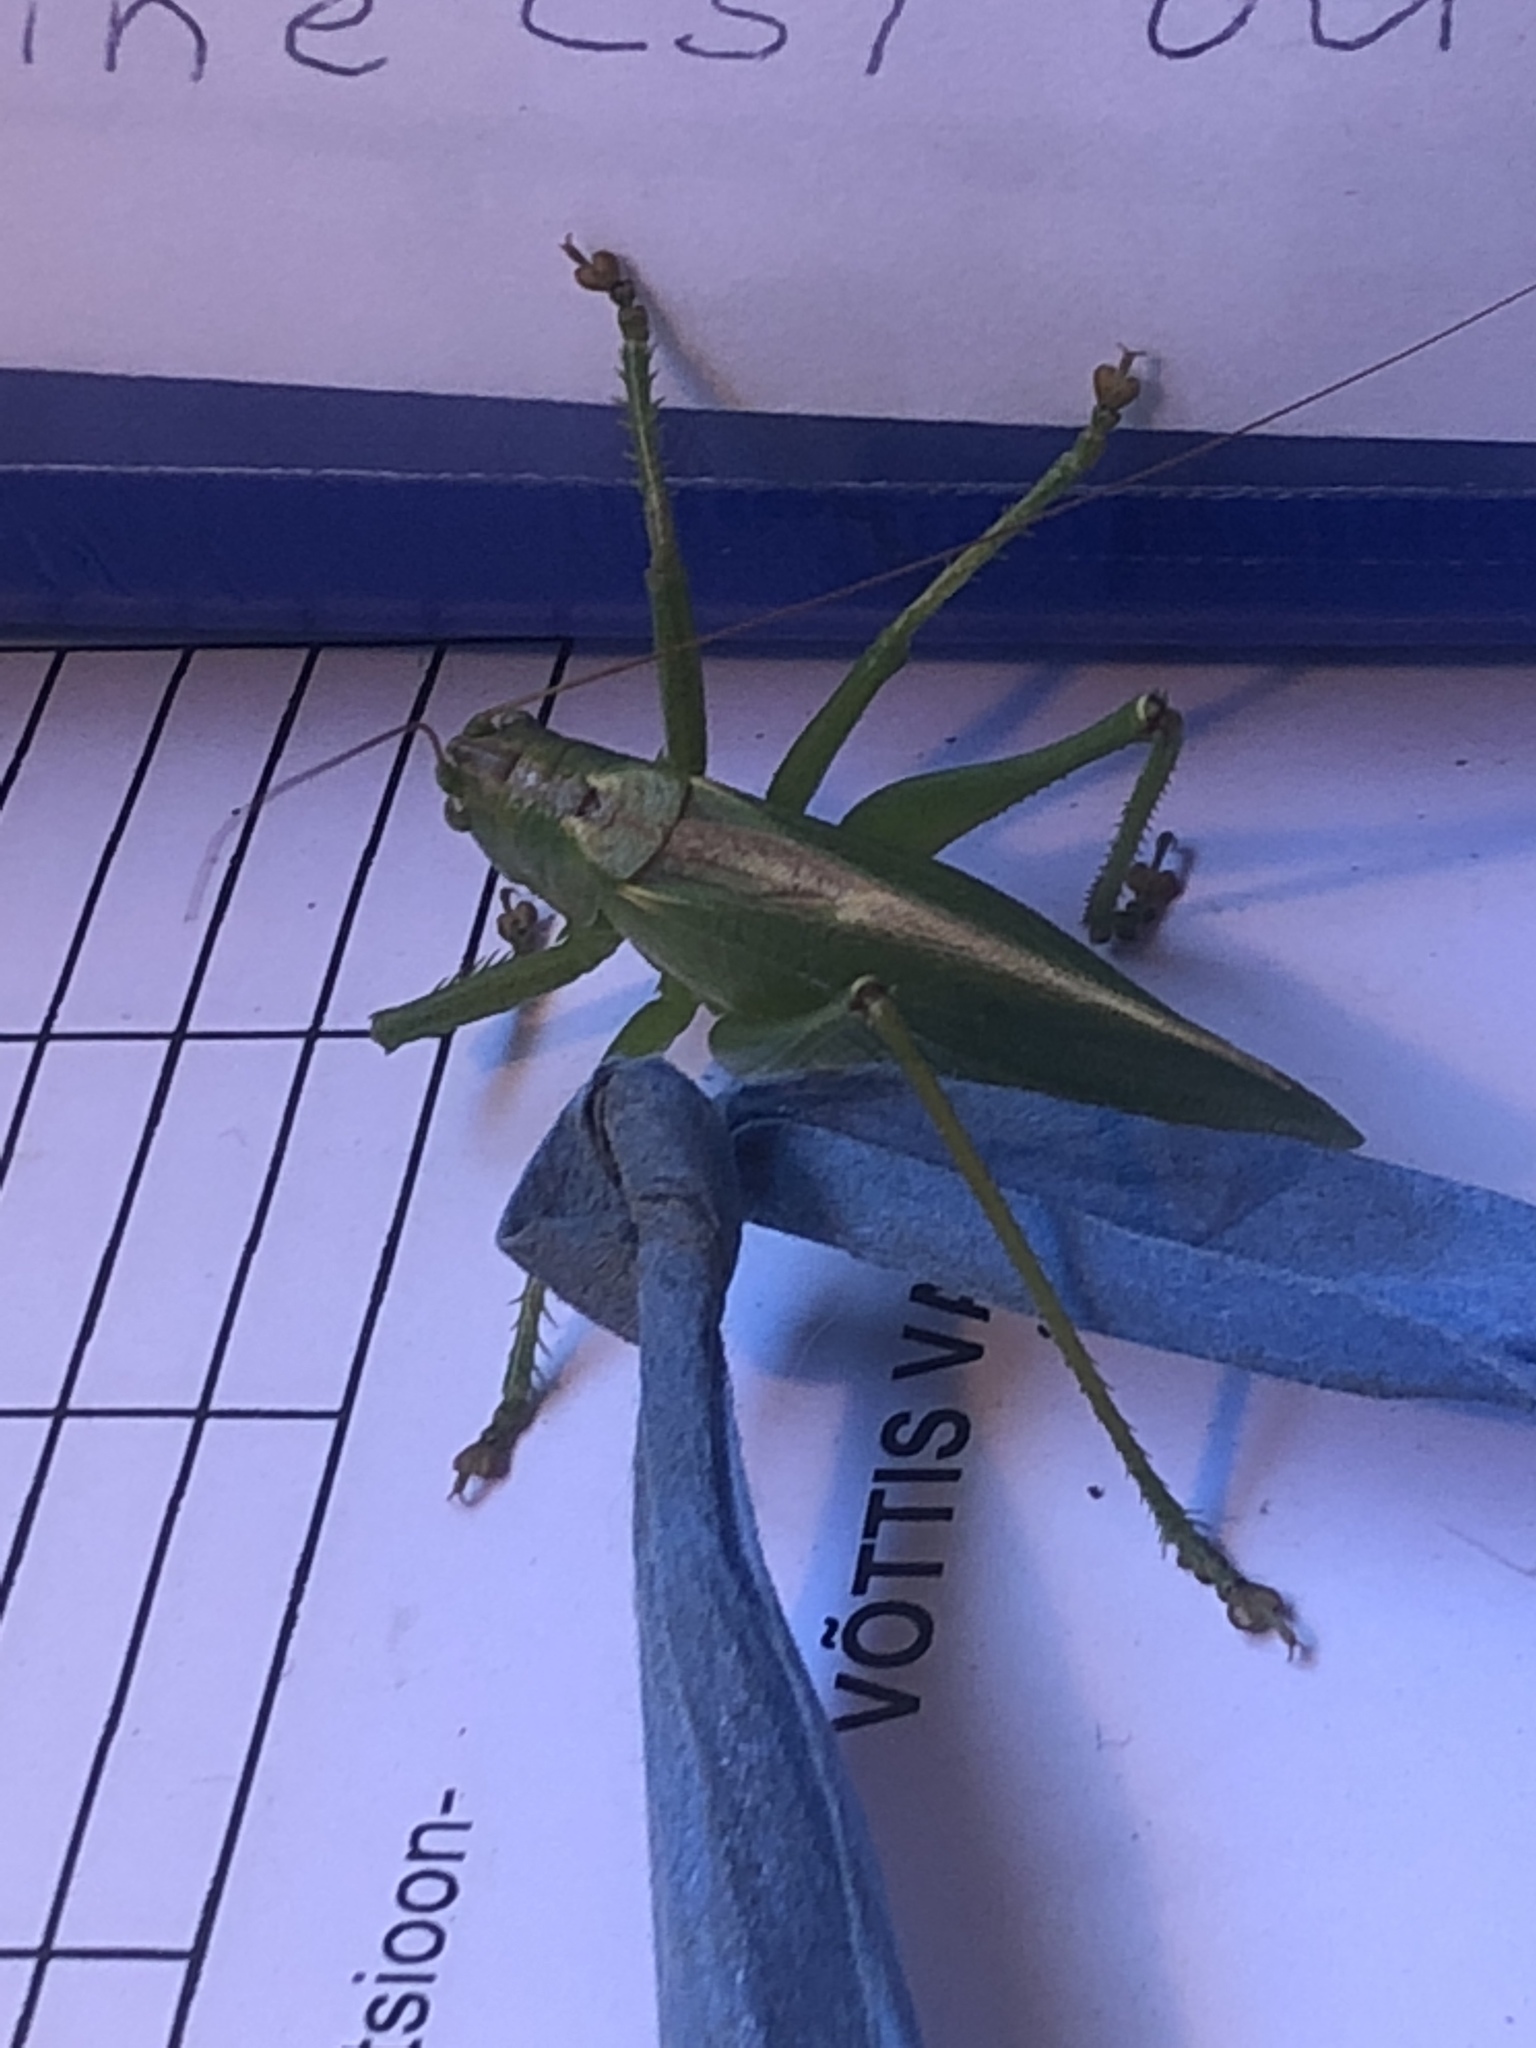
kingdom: Animalia
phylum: Arthropoda
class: Insecta
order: Orthoptera
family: Tettigoniidae
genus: Tettigonia
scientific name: Tettigonia cantans
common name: Upland green bush-cricket
